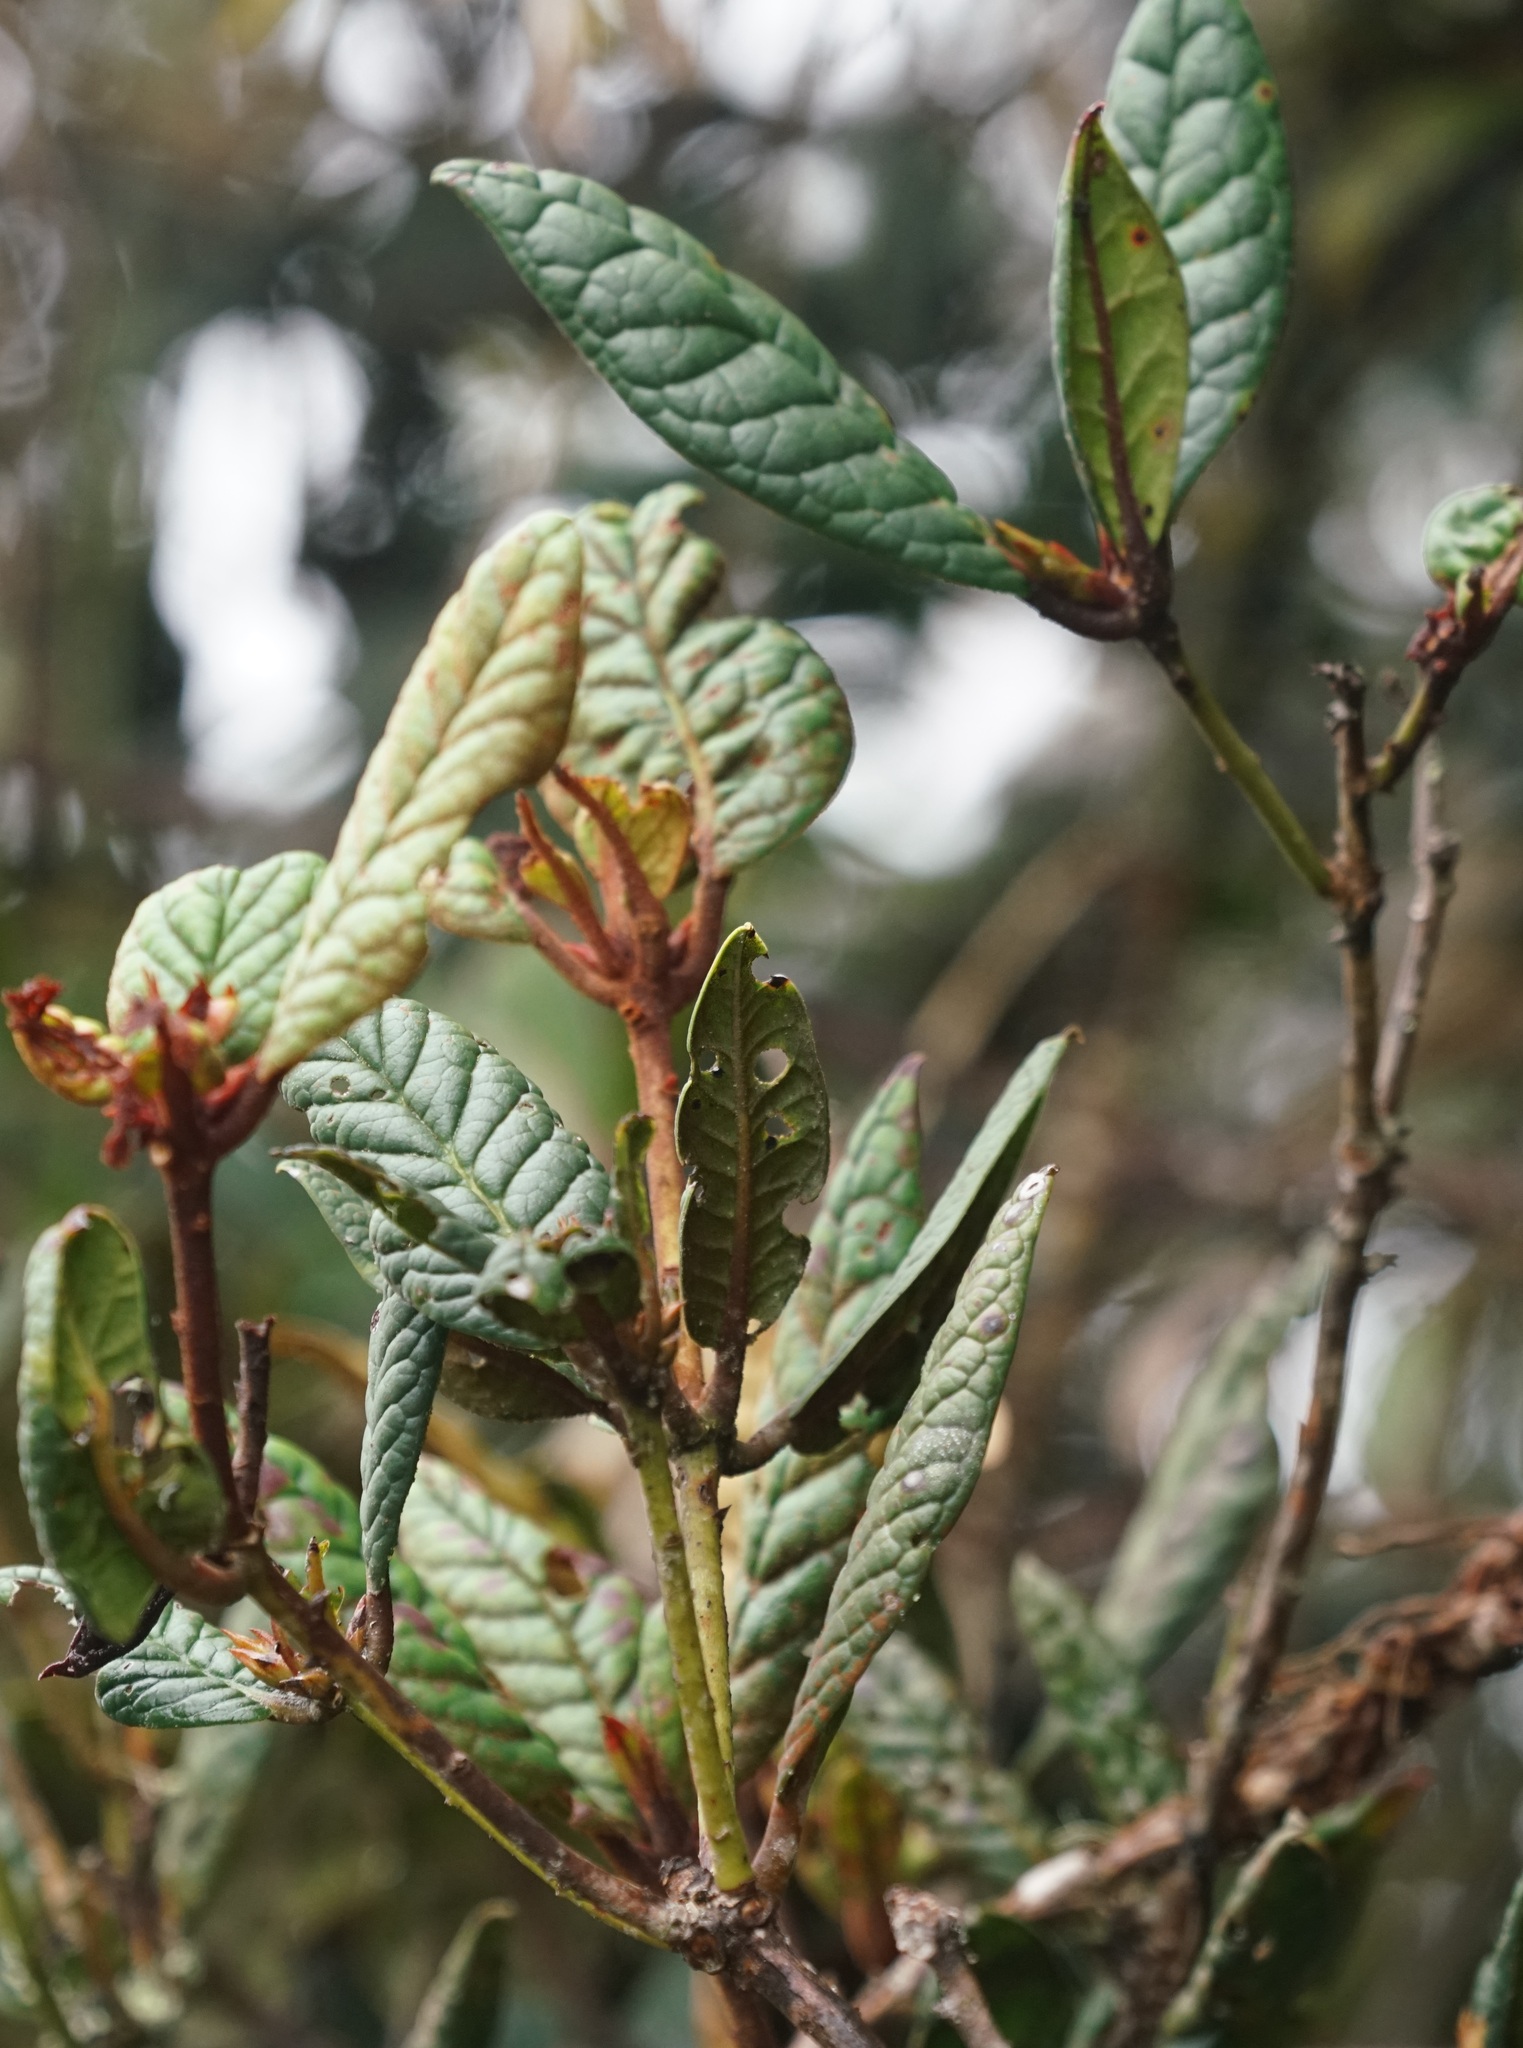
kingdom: Plantae
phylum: Tracheophyta
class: Magnoliopsida
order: Ericales
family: Ericaceae
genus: Rhododendron
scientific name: Rhododendron rugosum
